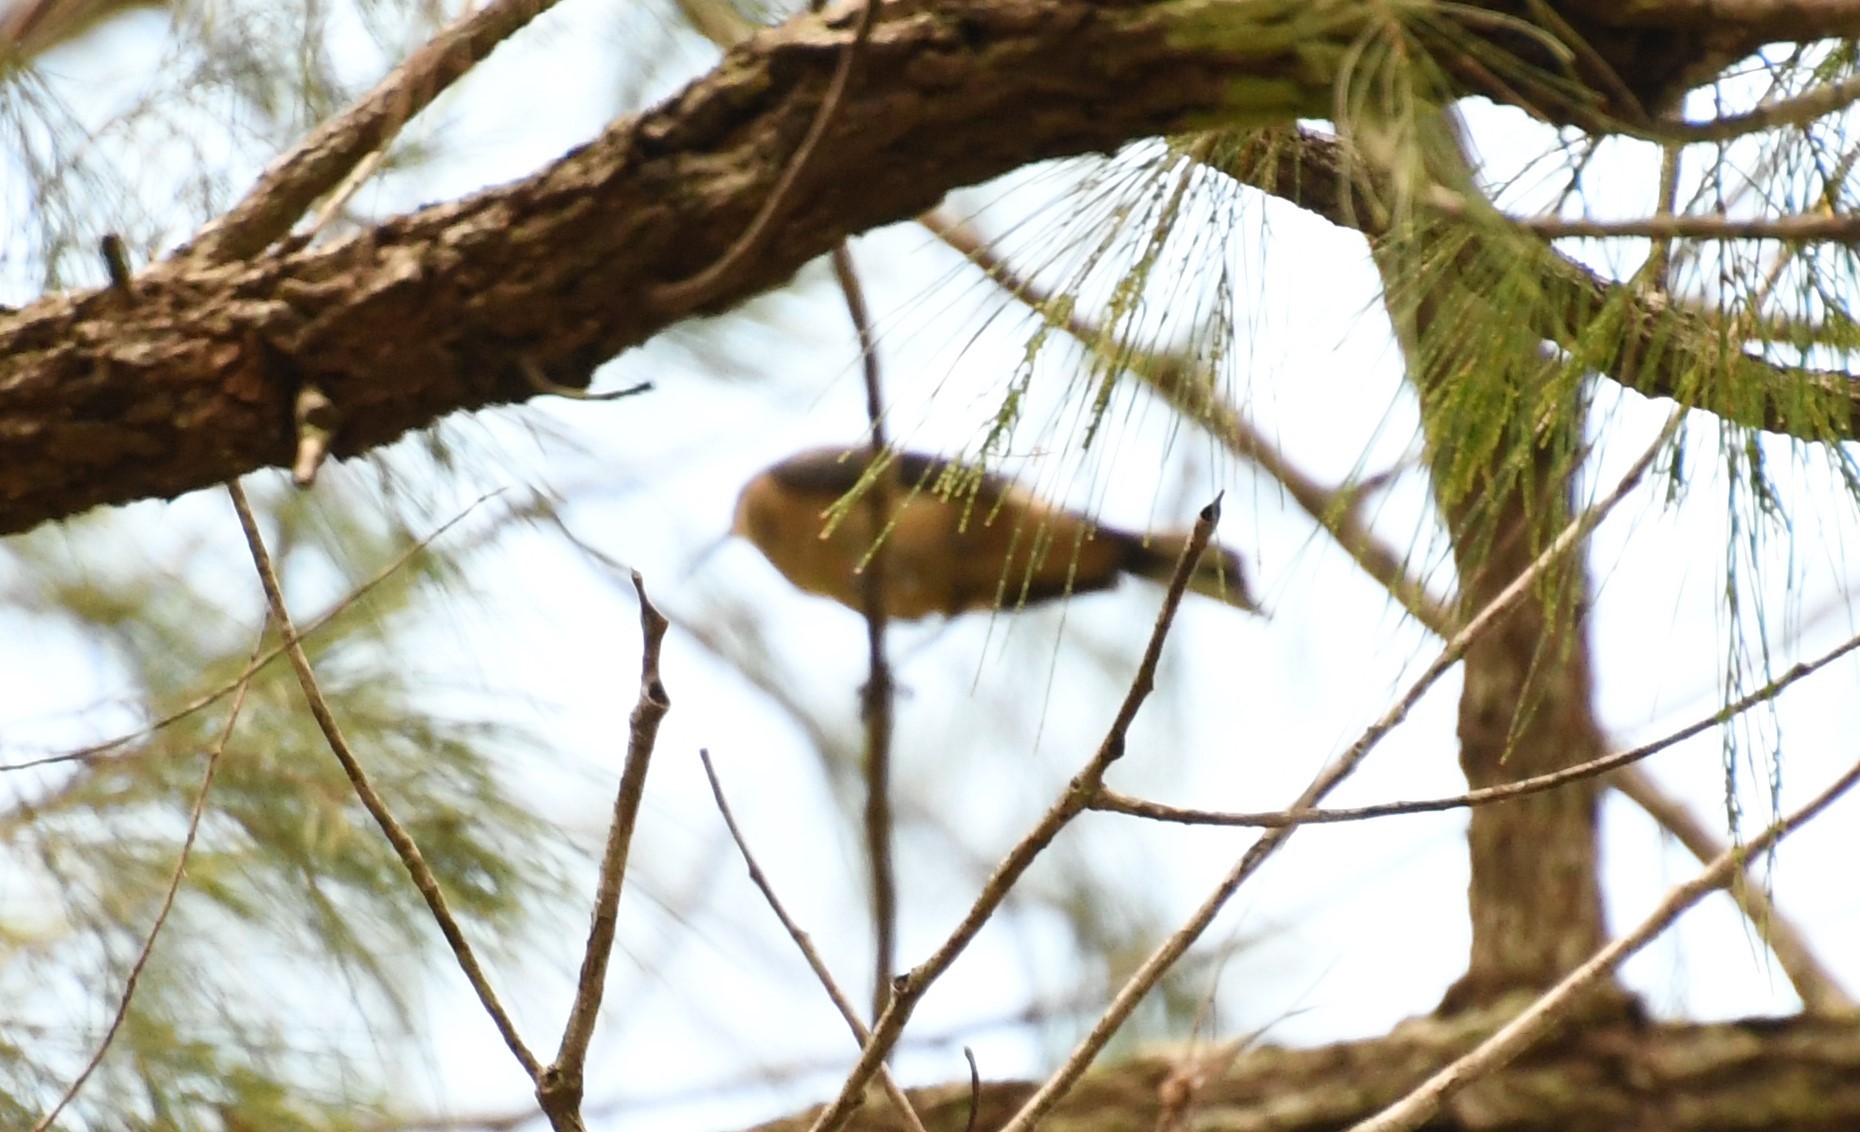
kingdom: Animalia
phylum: Chordata
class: Aves
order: Passeriformes
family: Meliphagidae
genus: Acanthorhynchus
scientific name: Acanthorhynchus tenuirostris
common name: Eastern spinebill
